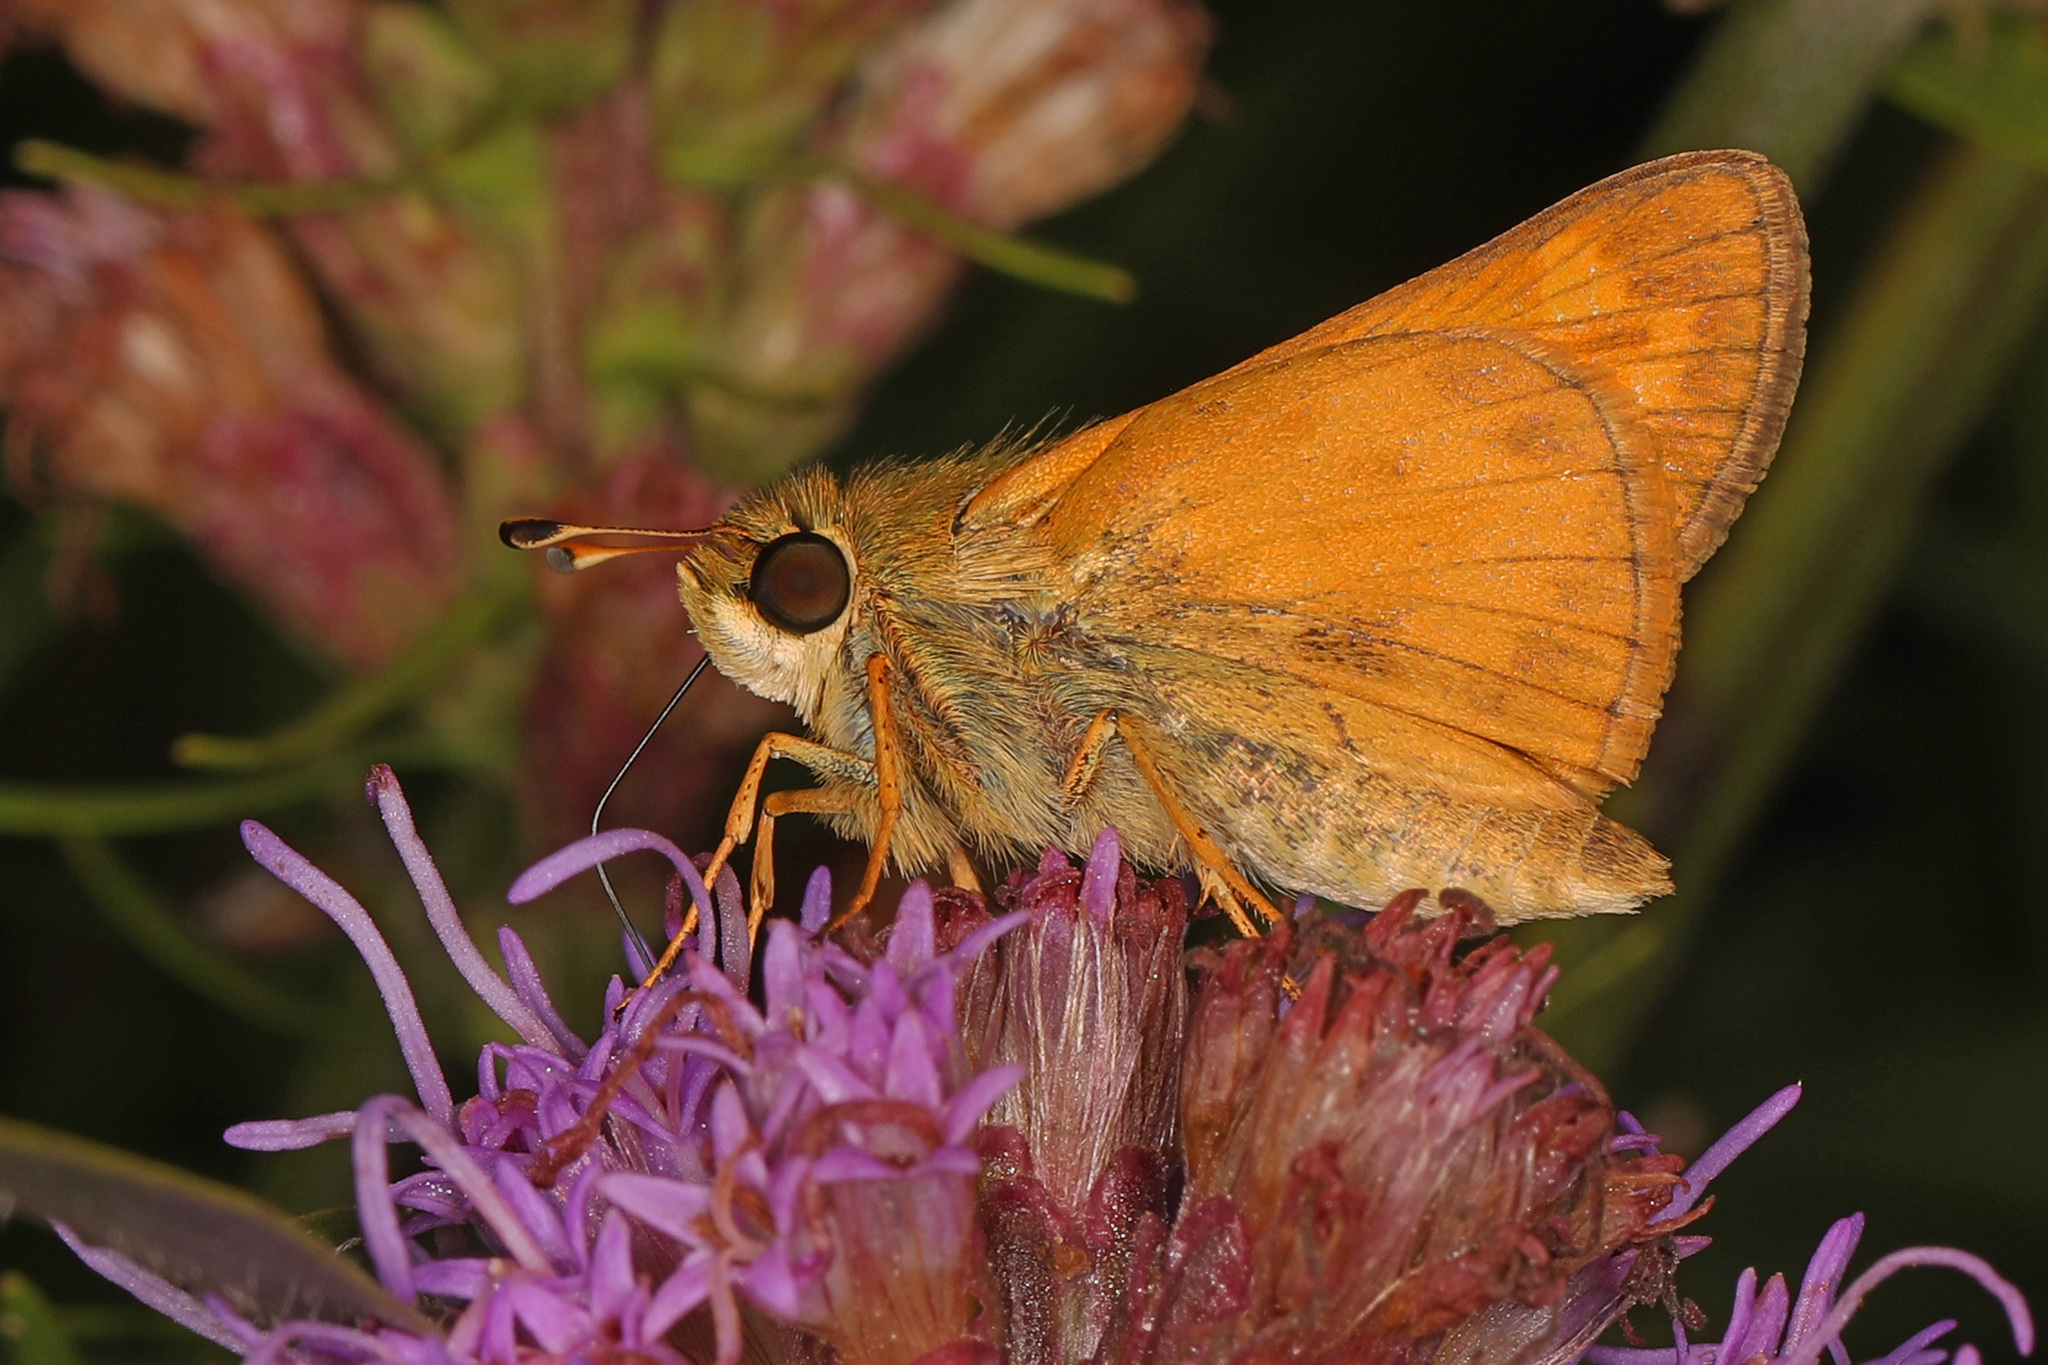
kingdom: Animalia
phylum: Arthropoda
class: Insecta
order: Lepidoptera
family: Hesperiidae
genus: Atalopedes
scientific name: Atalopedes
